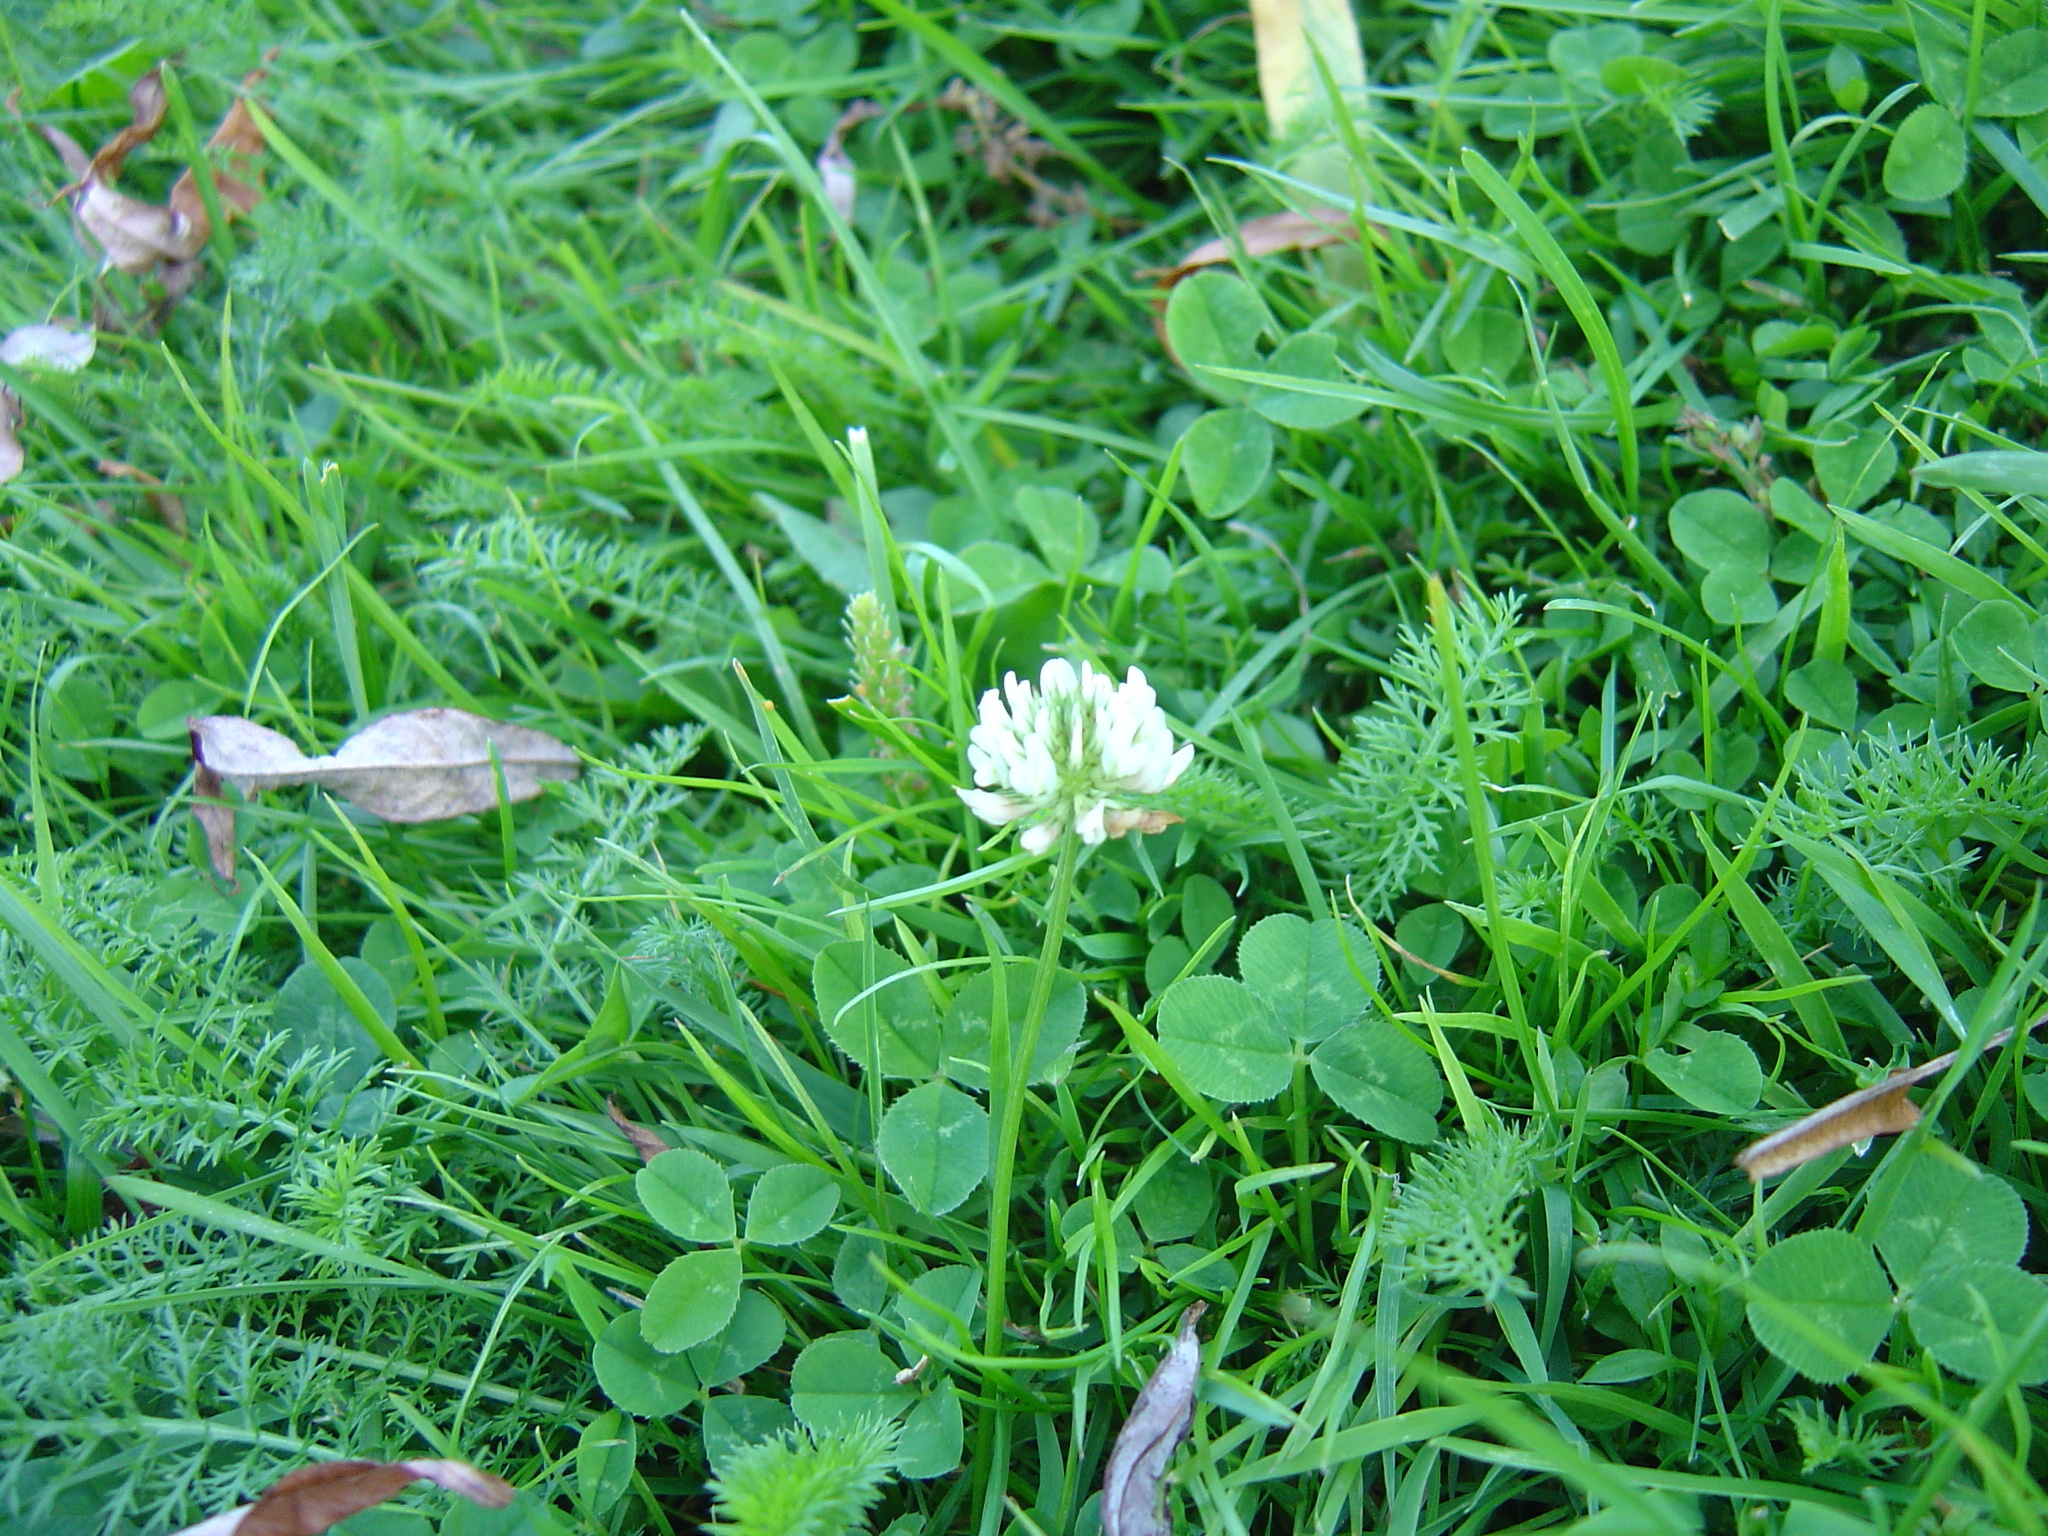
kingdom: Plantae
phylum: Tracheophyta
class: Magnoliopsida
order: Fabales
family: Fabaceae
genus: Trifolium
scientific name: Trifolium repens
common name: White clover
